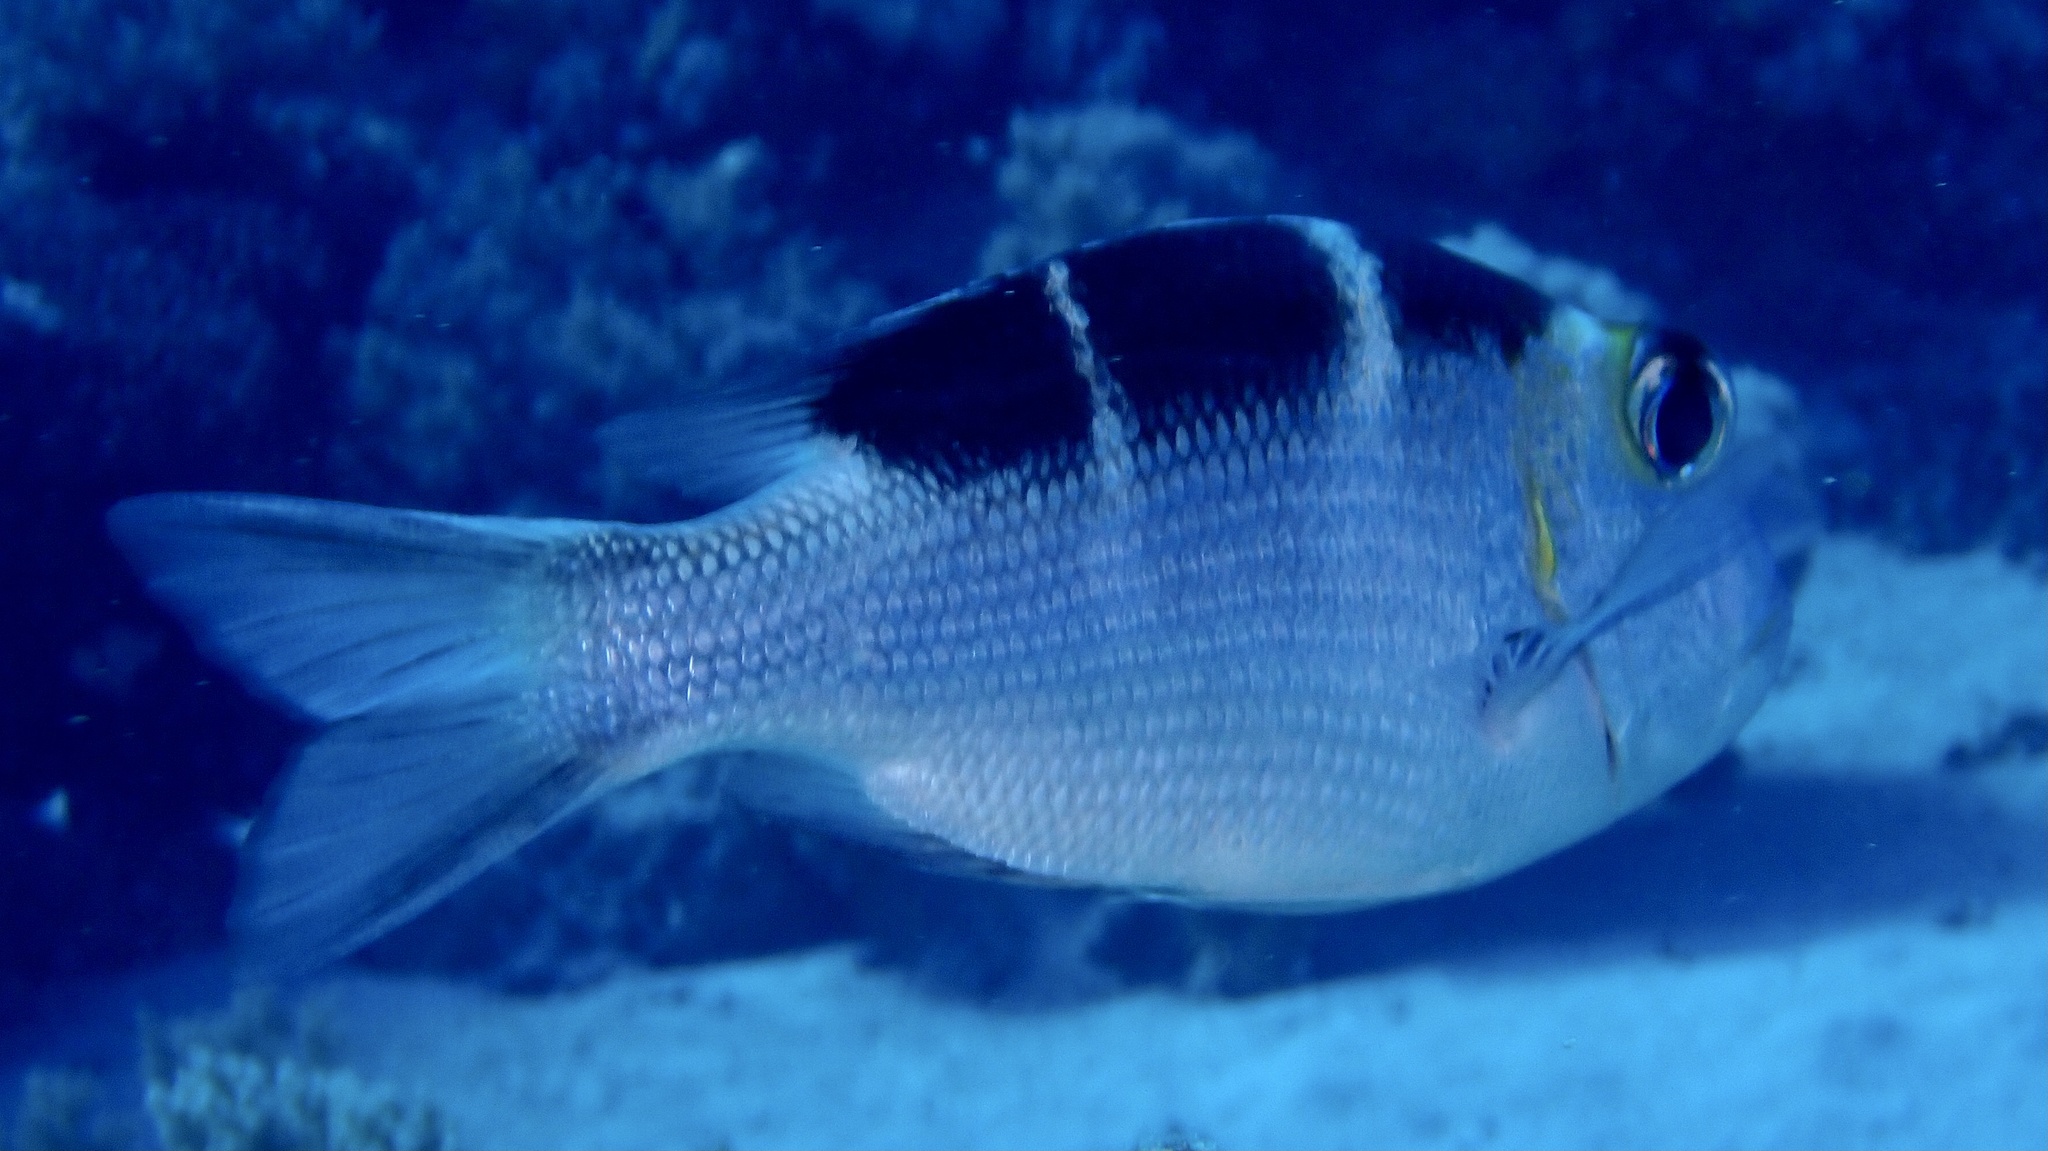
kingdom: Animalia
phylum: Chordata
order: Perciformes
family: Lethrinidae
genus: Monotaxis
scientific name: Monotaxis grandoculis
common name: Bigeye emperor
